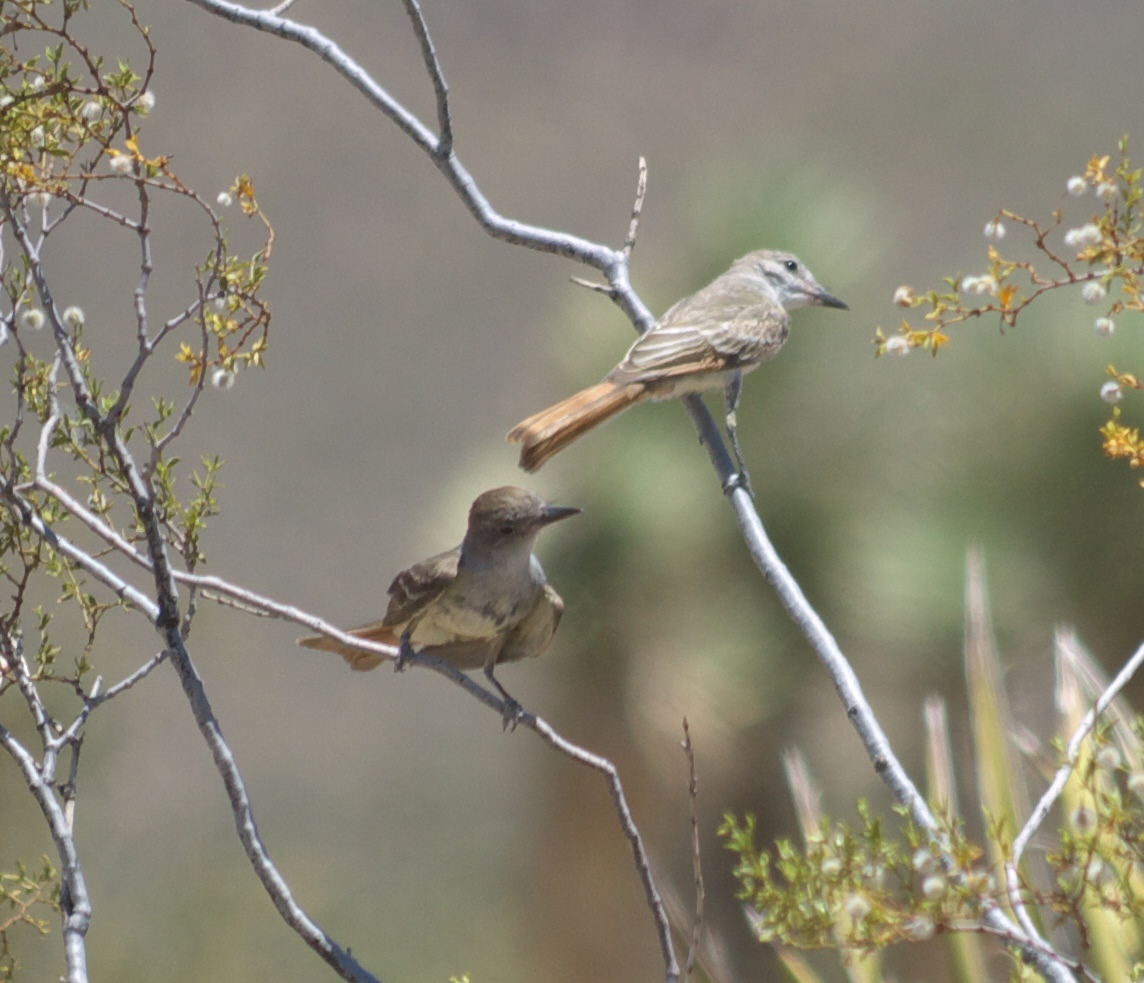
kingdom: Animalia
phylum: Chordata
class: Aves
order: Passeriformes
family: Tyrannidae
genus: Myiarchus
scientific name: Myiarchus cinerascens
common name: Ash-throated flycatcher
